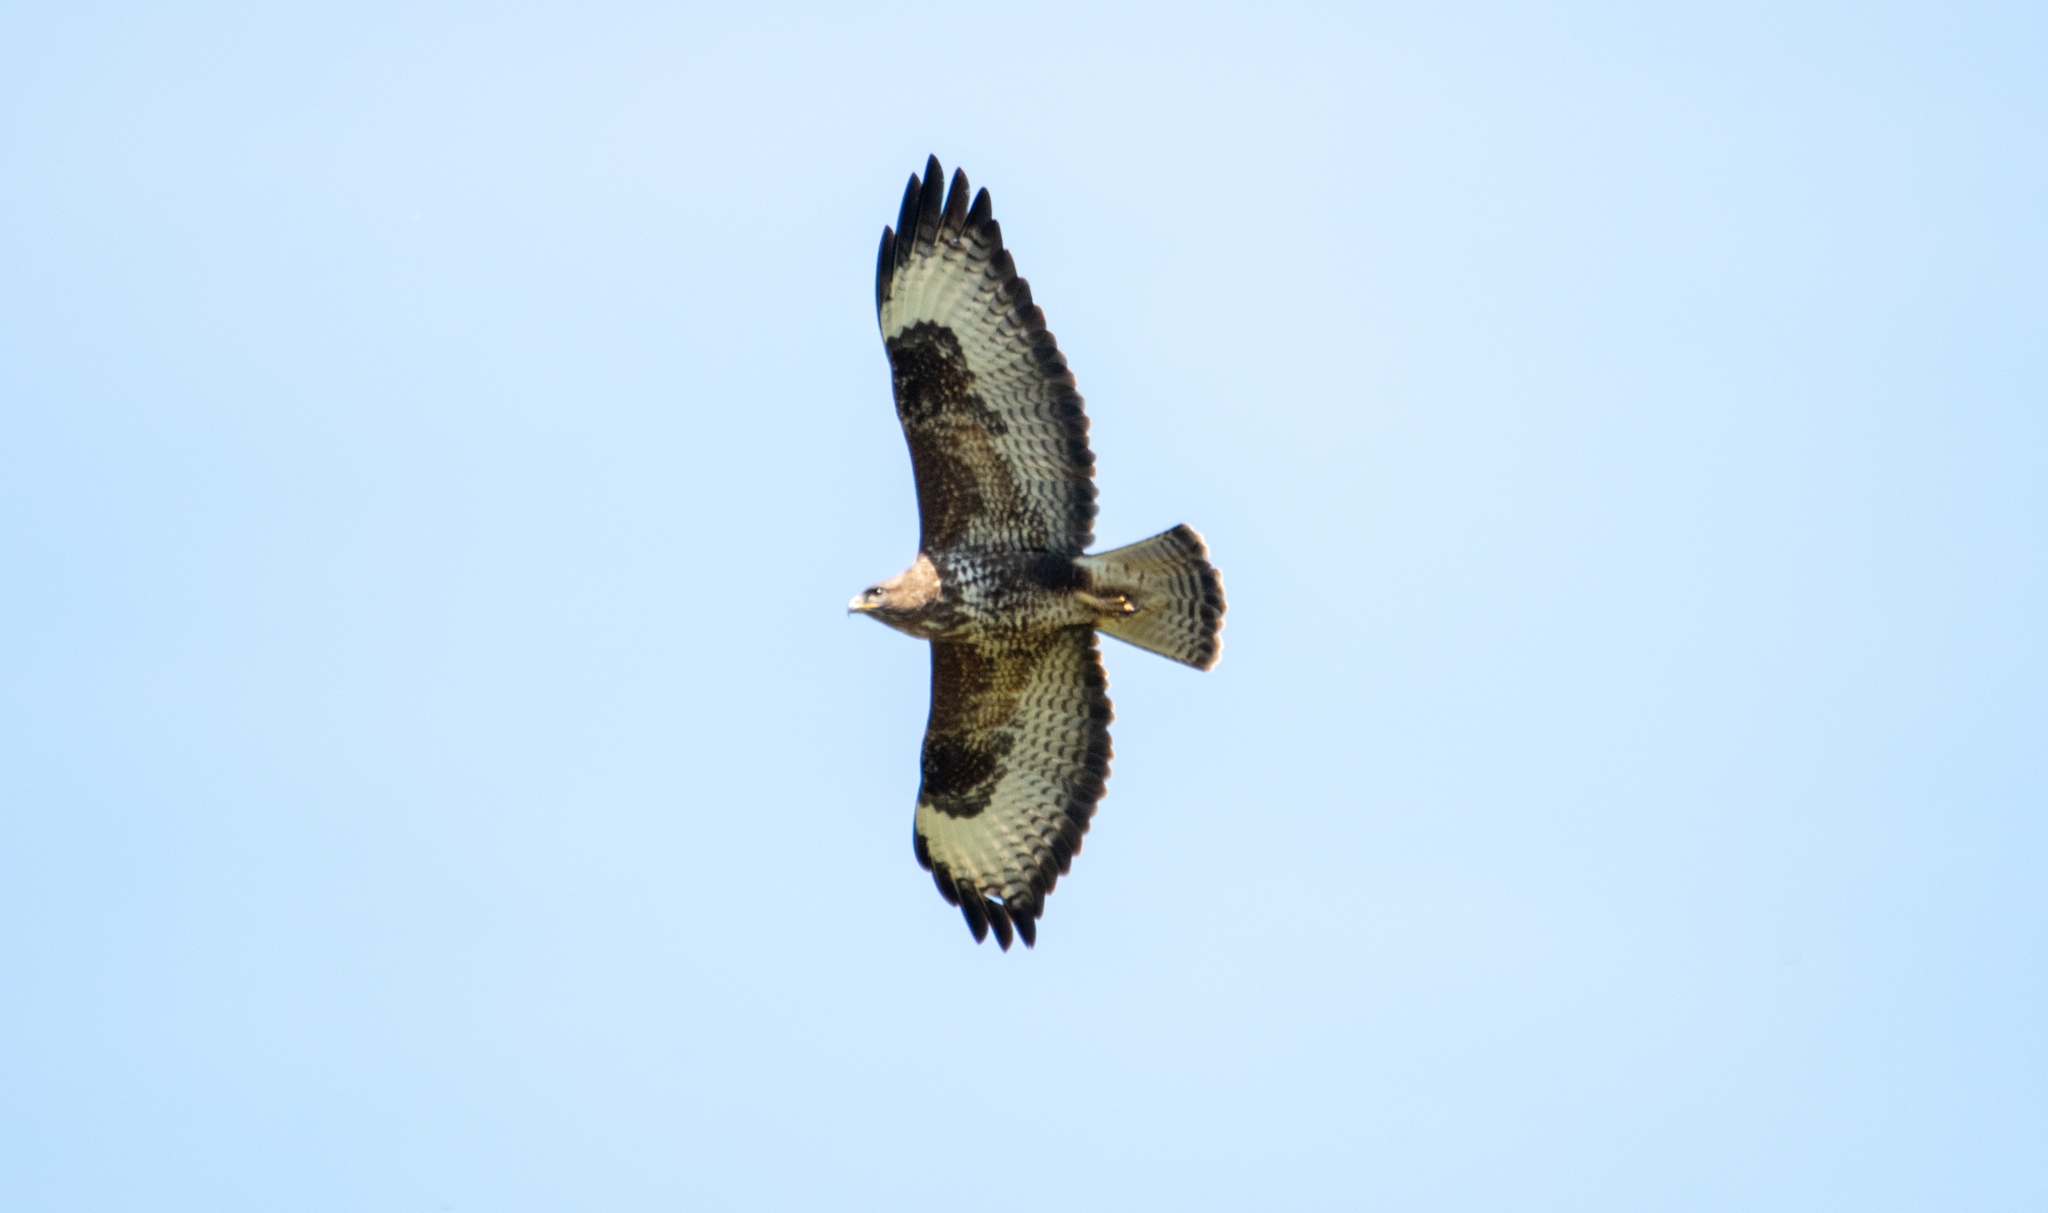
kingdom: Animalia
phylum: Chordata
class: Aves
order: Accipitriformes
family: Accipitridae
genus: Buteo
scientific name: Buteo buteo
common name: Common buzzard
